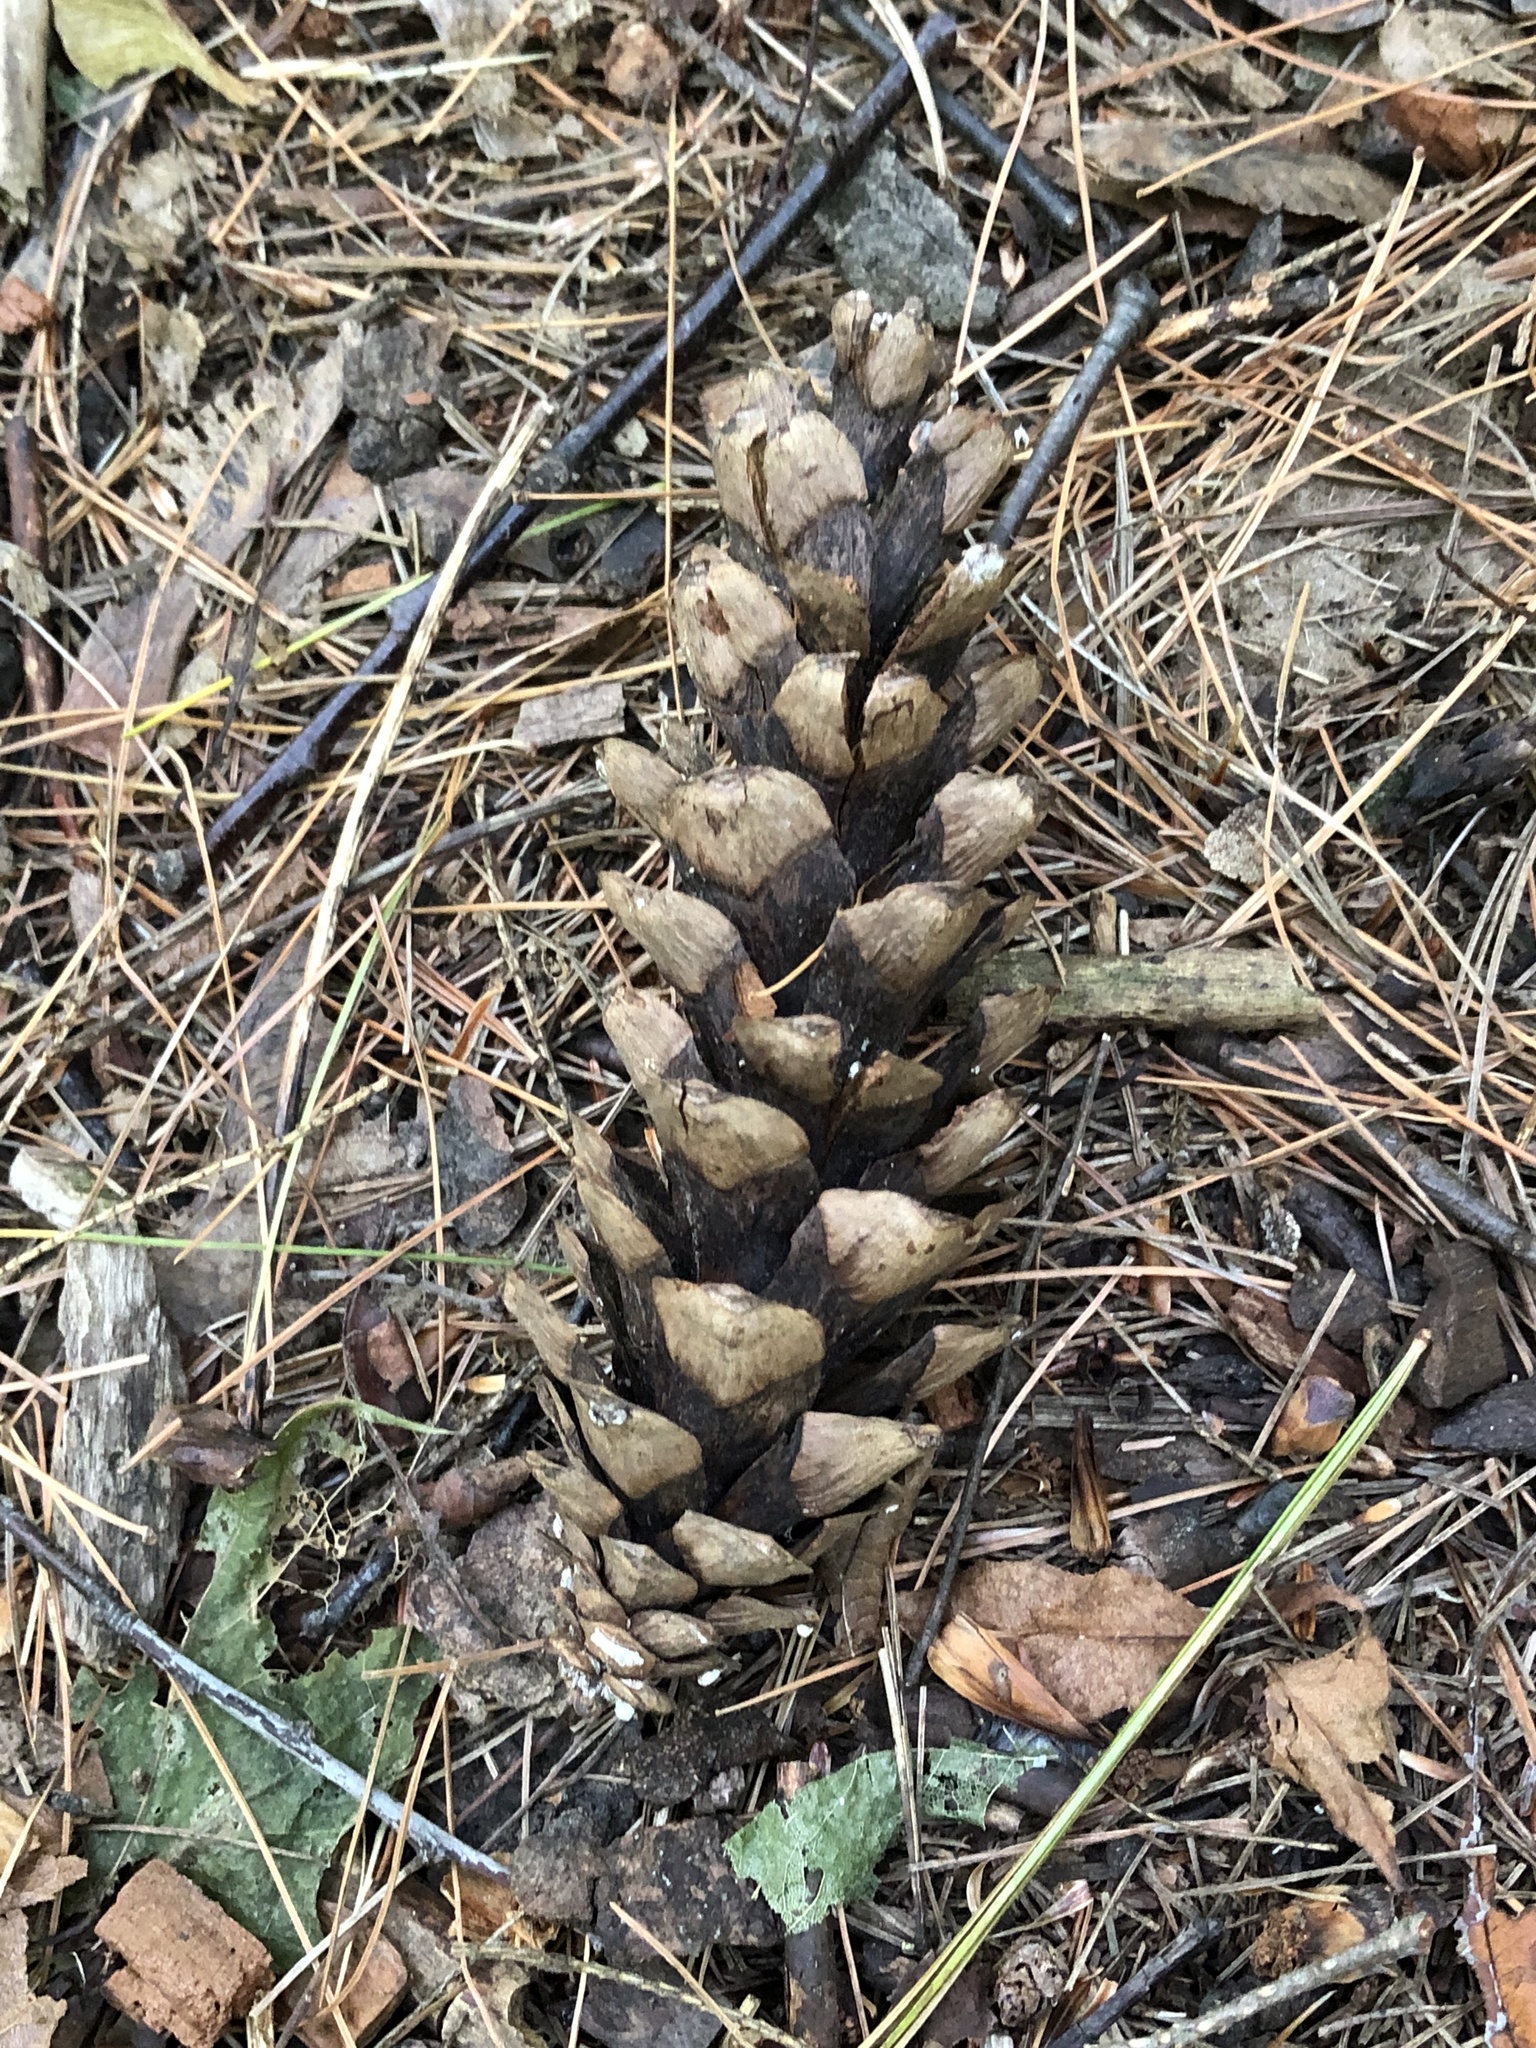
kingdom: Plantae
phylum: Tracheophyta
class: Pinopsida
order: Pinales
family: Pinaceae
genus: Pinus
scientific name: Pinus strobus
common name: Weymouth pine
